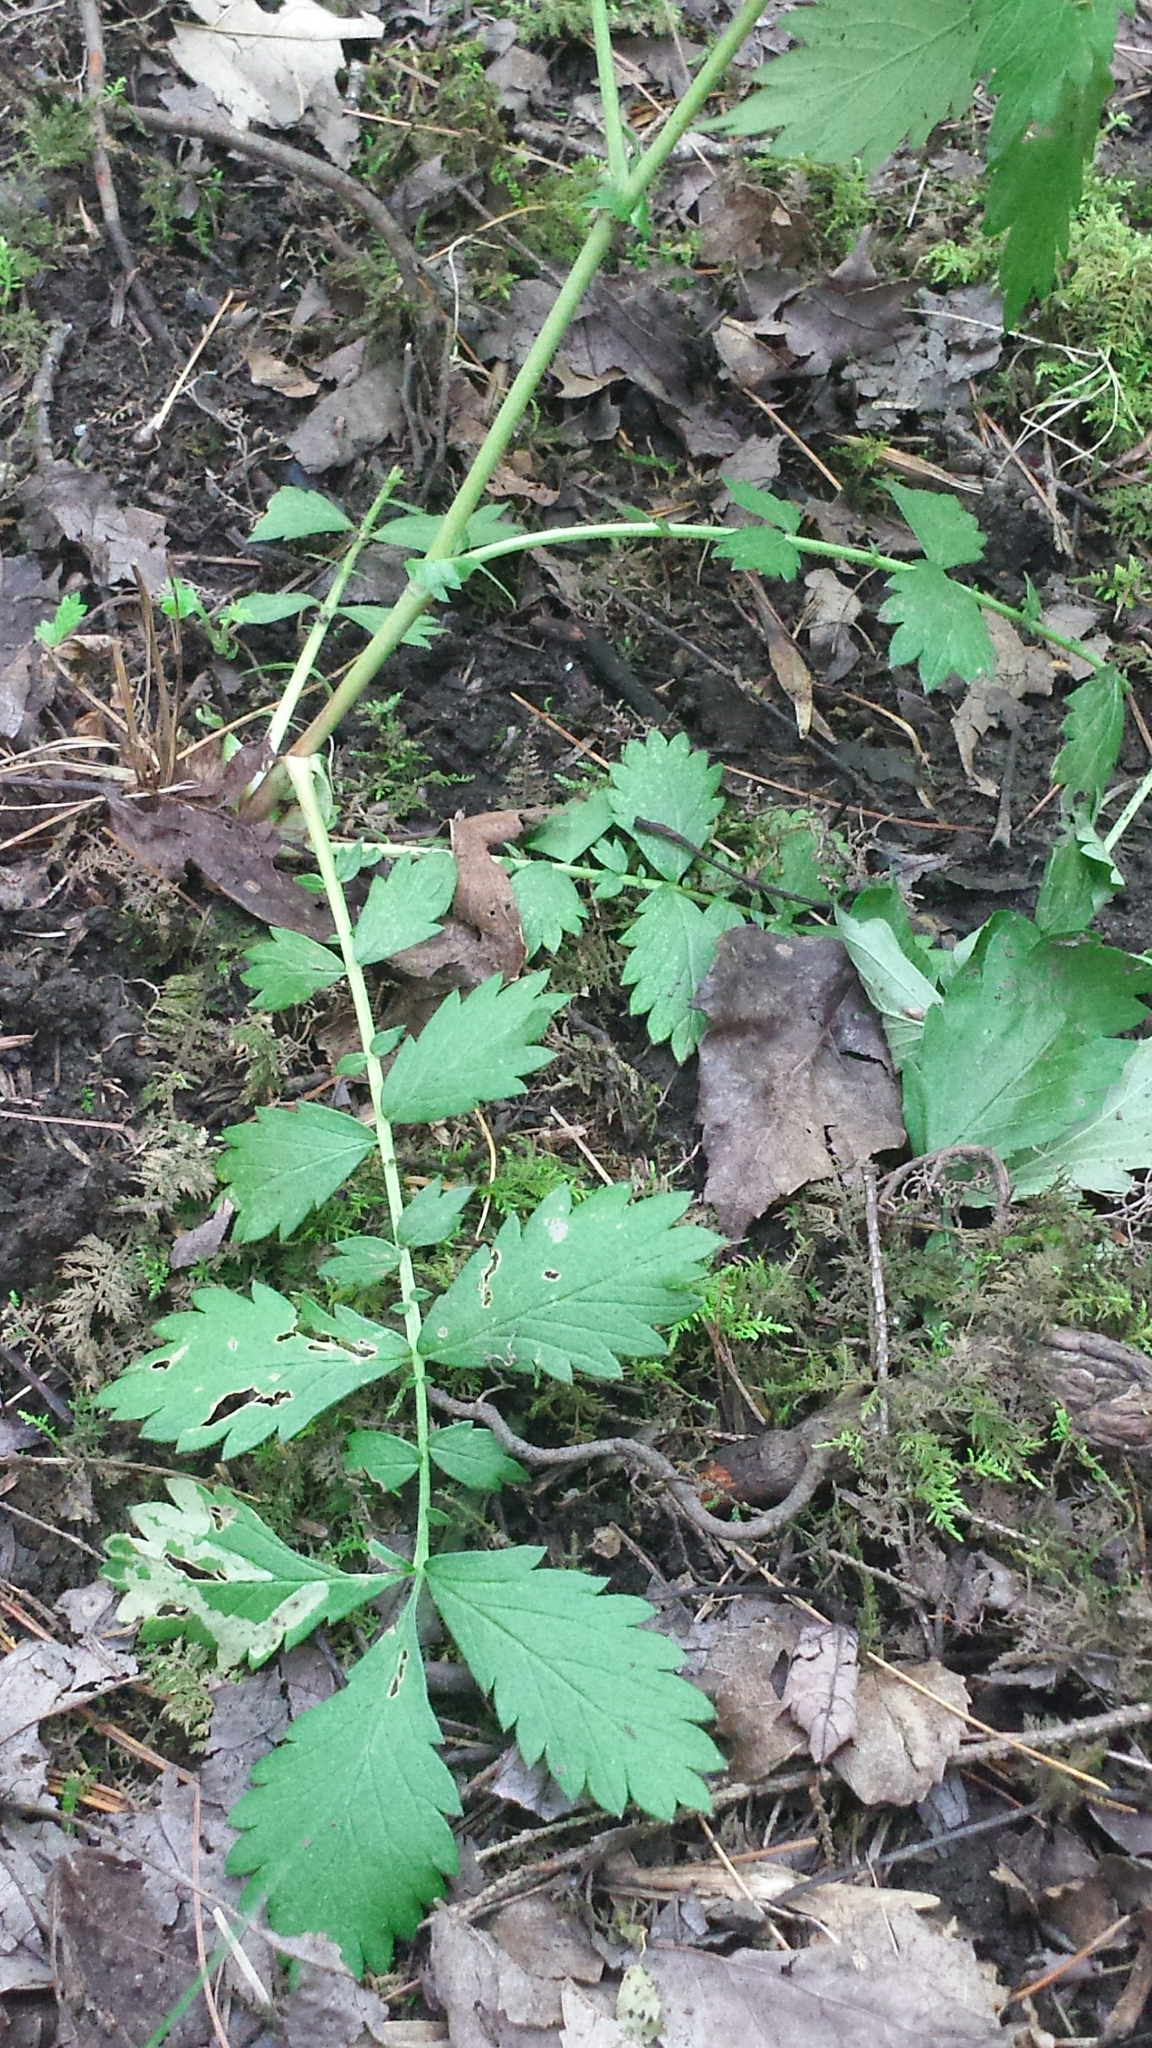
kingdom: Plantae
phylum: Tracheophyta
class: Magnoliopsida
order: Rosales
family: Rosaceae
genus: Agrimonia
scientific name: Agrimonia gryposepala
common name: Common agrimony
